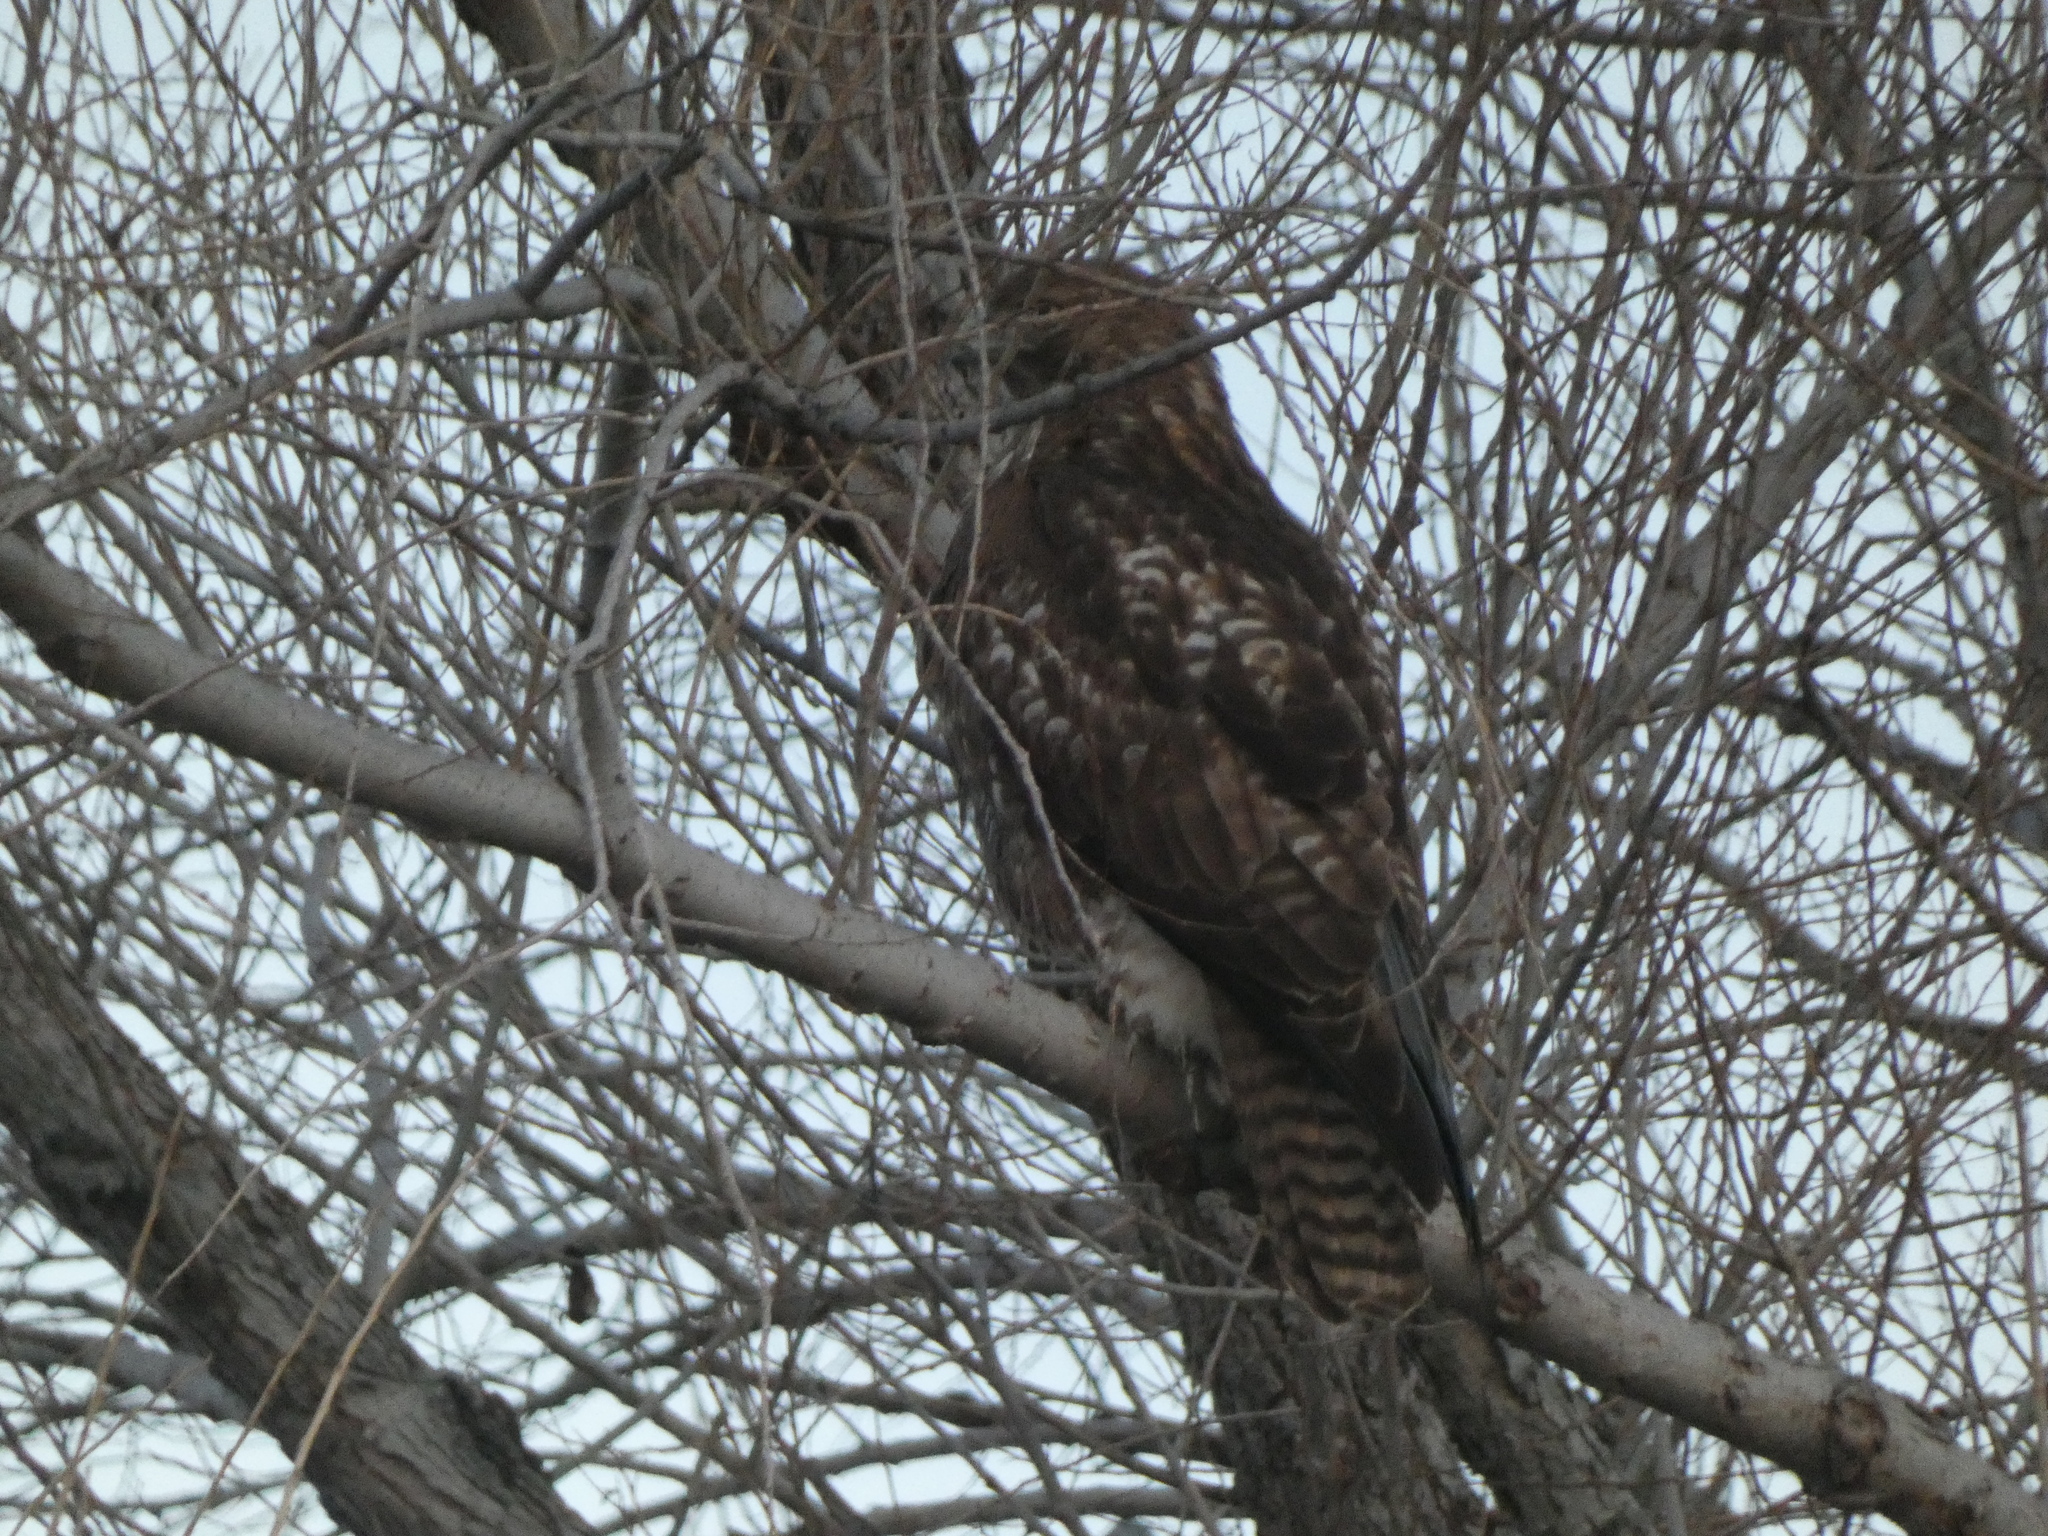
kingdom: Animalia
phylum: Chordata
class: Aves
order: Accipitriformes
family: Accipitridae
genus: Buteo
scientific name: Buteo jamaicensis
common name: Red-tailed hawk
